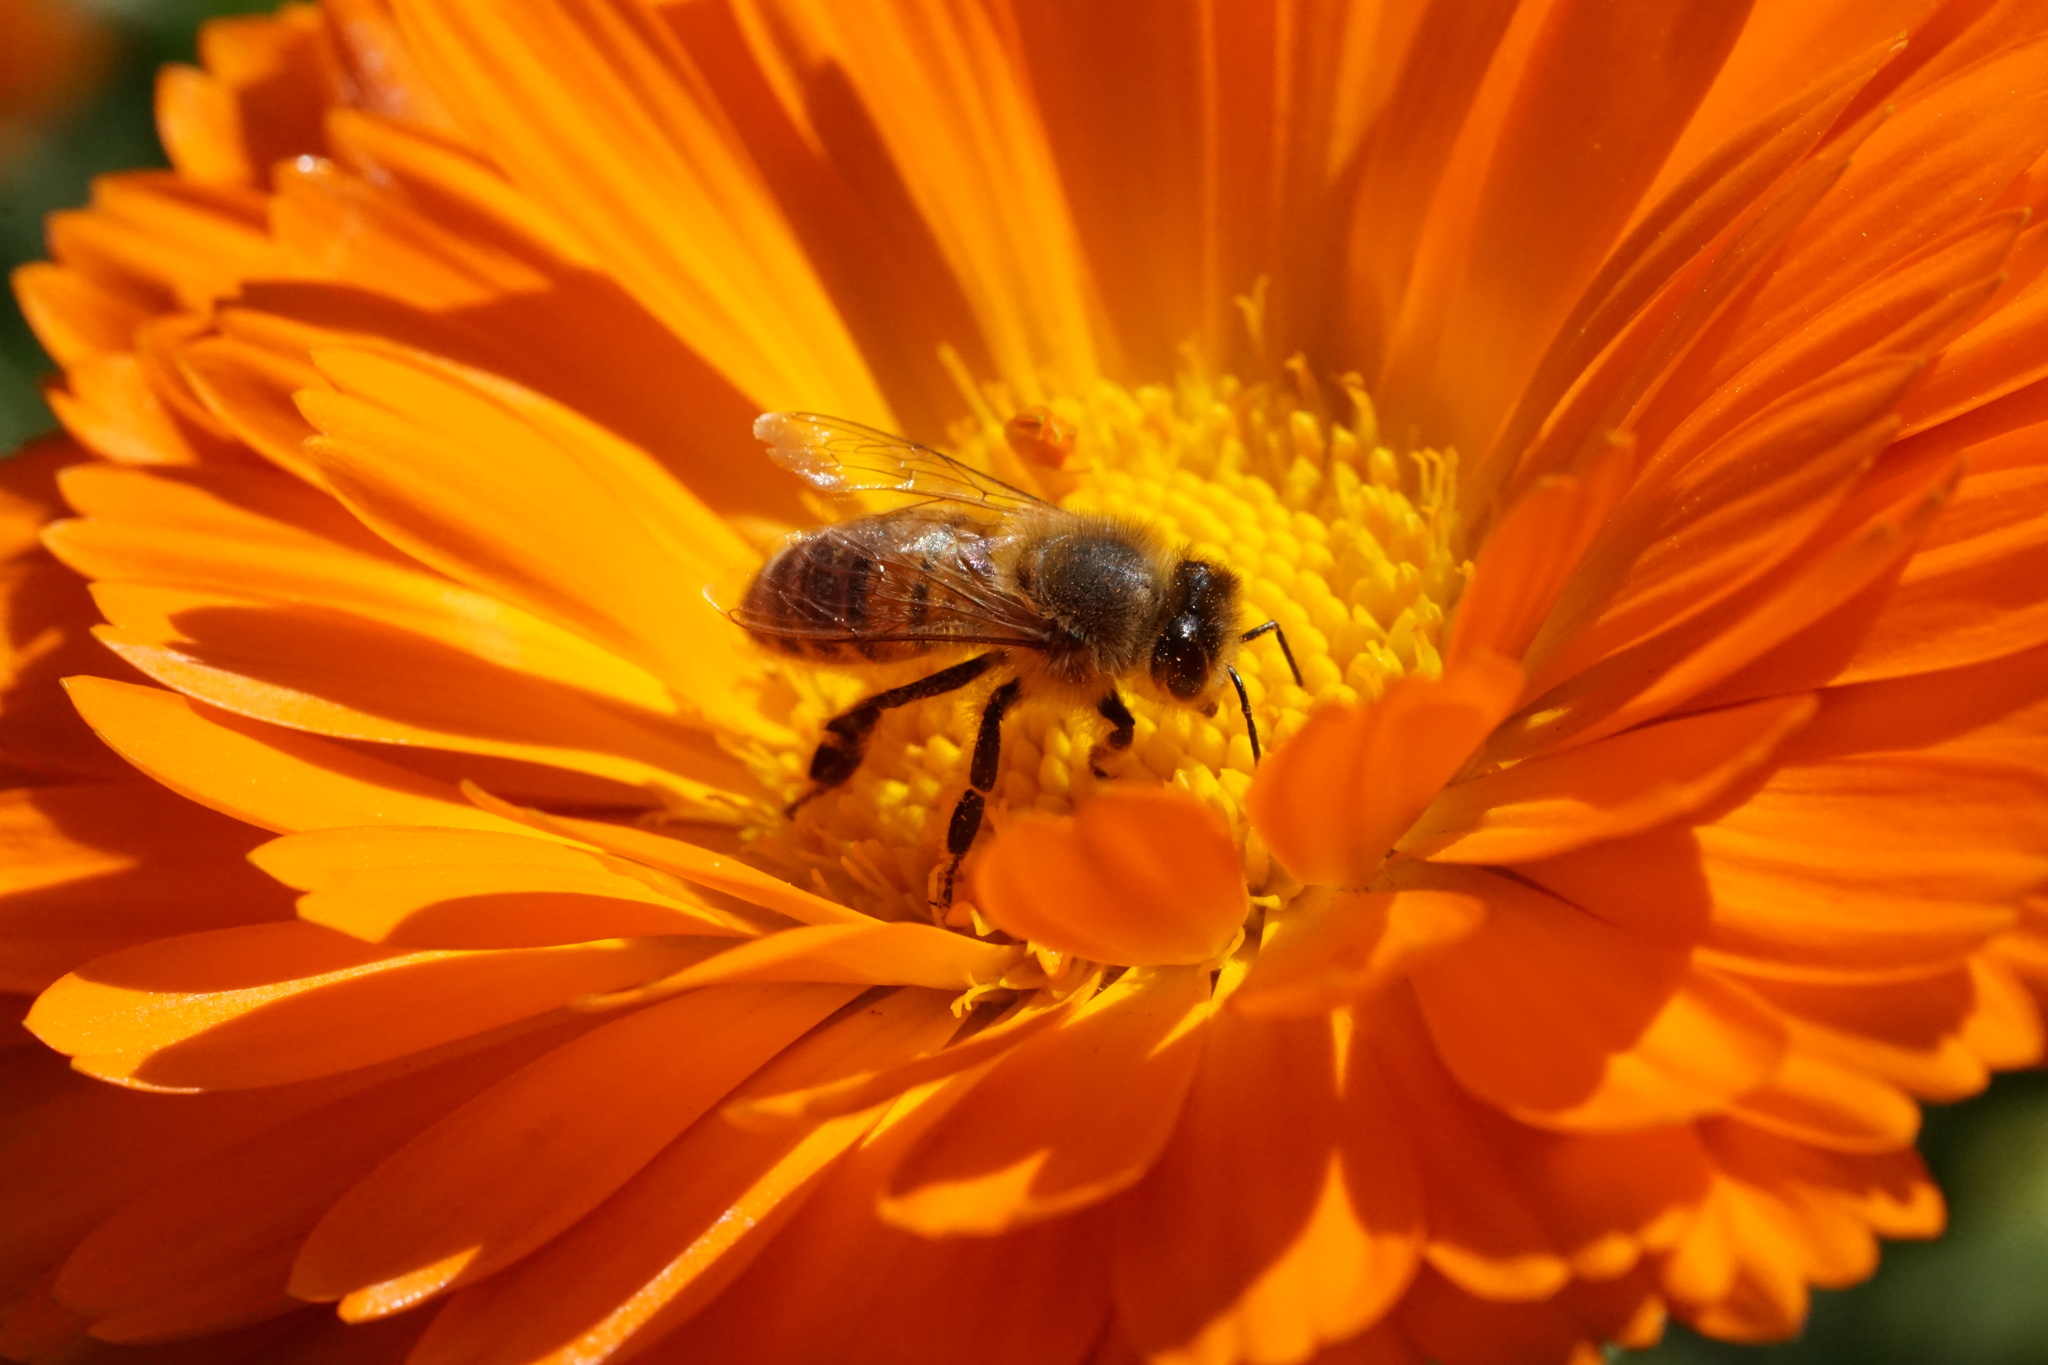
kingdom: Animalia
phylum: Arthropoda
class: Insecta
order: Hymenoptera
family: Apidae
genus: Apis
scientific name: Apis mellifera
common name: Honey bee
